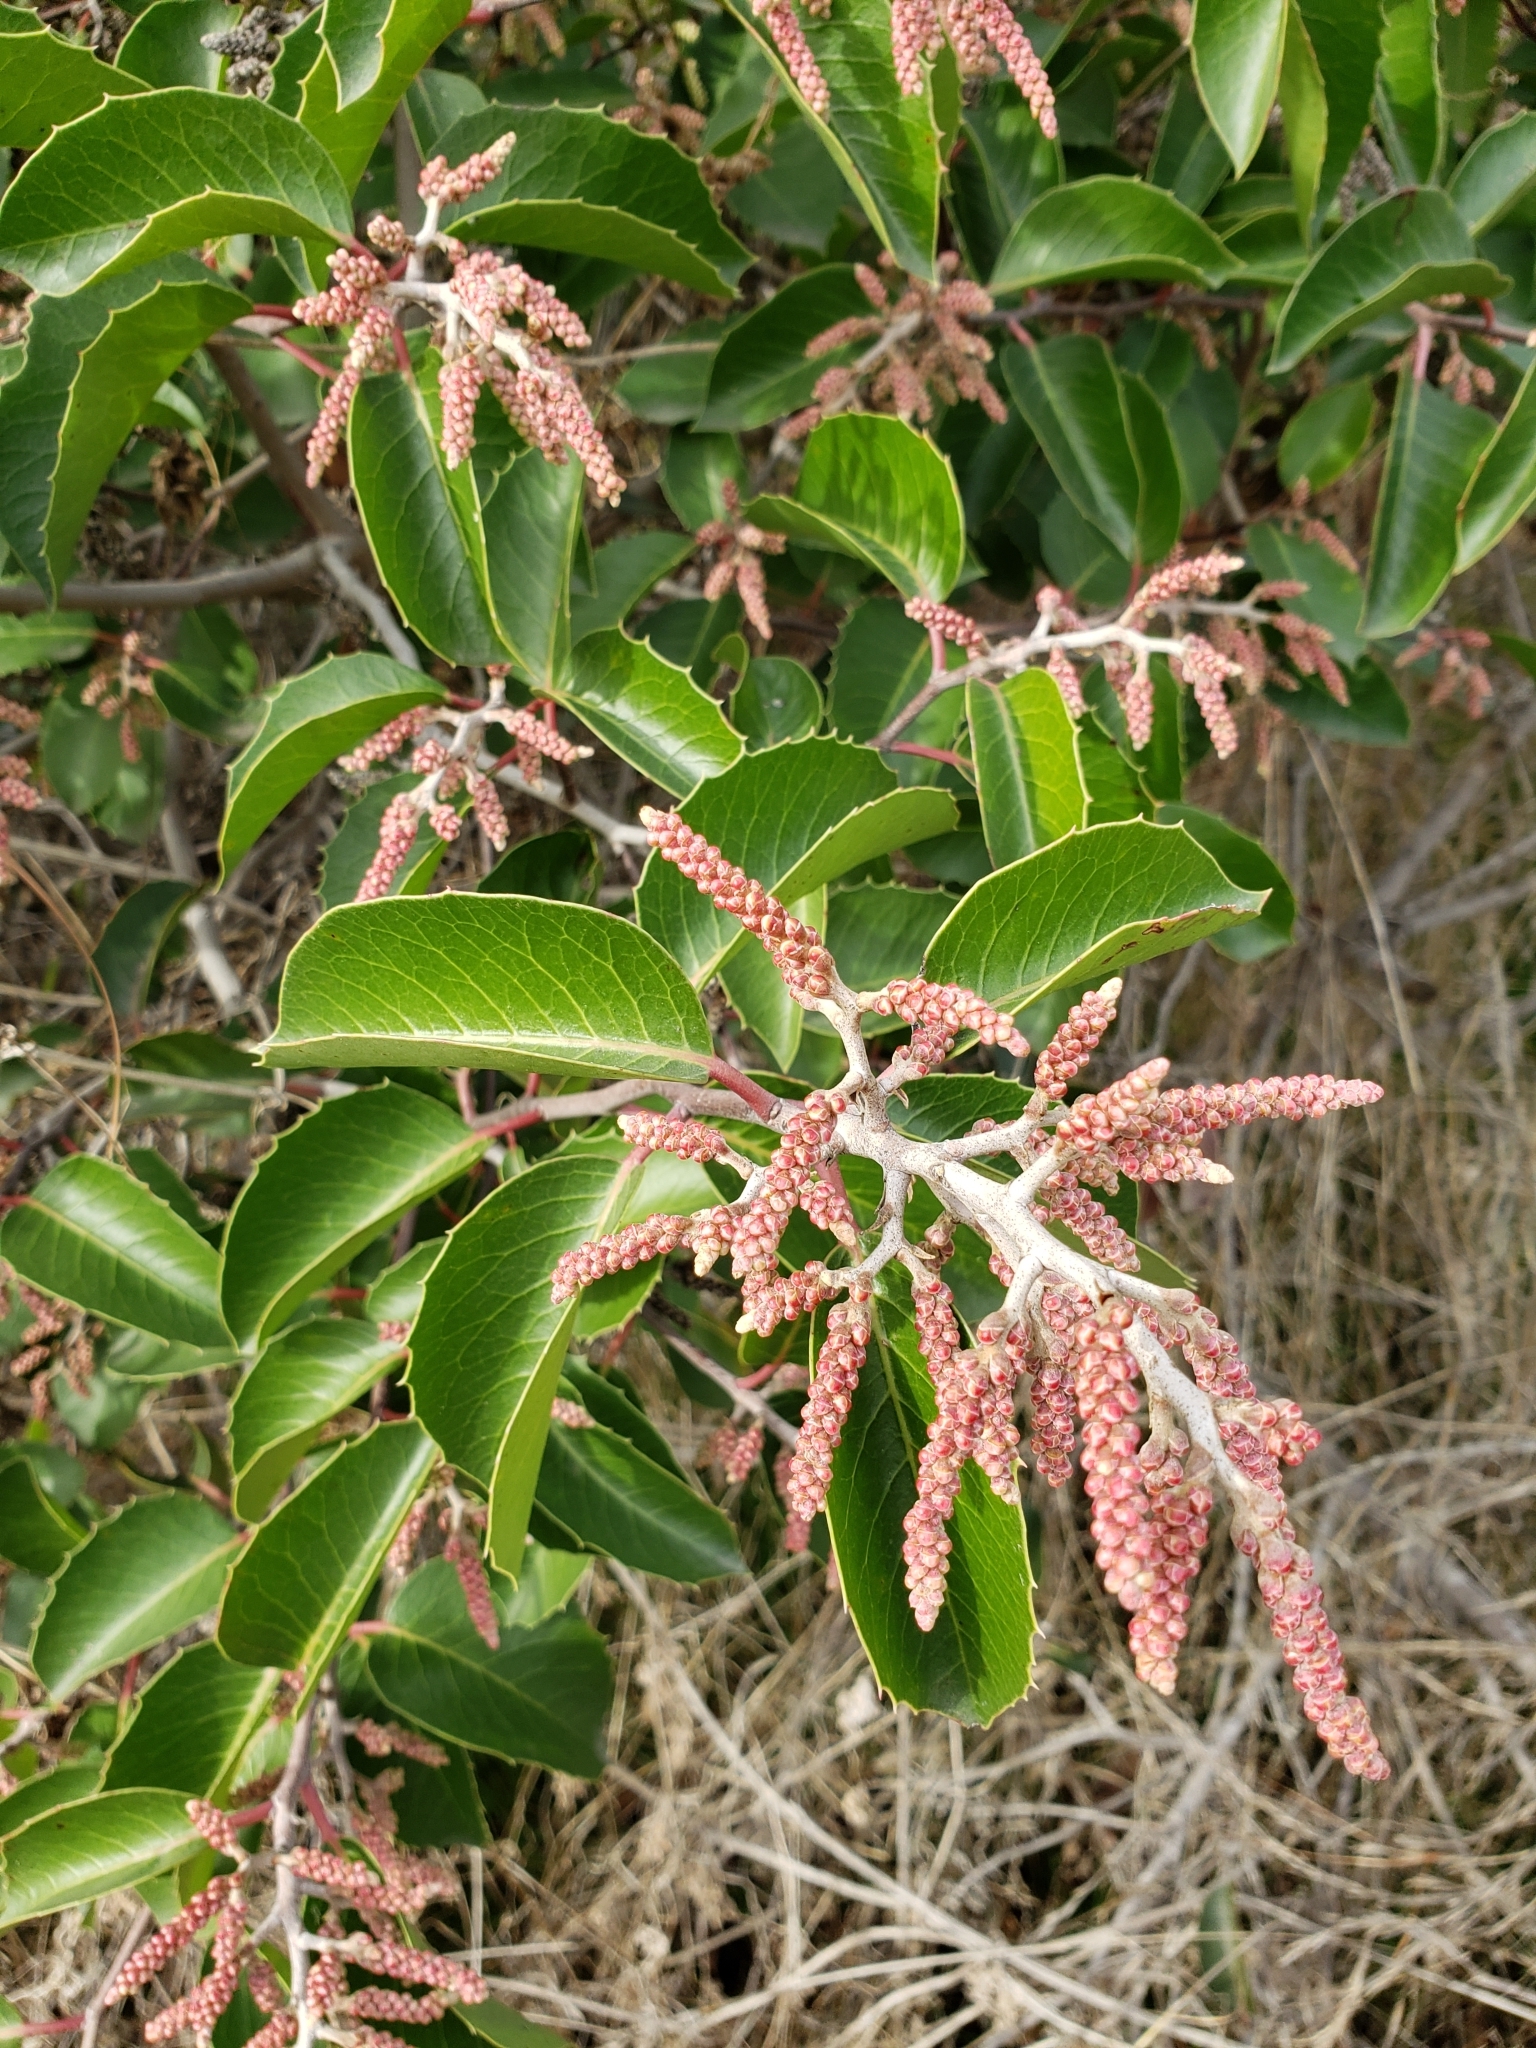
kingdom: Plantae
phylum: Tracheophyta
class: Magnoliopsida
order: Sapindales
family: Anacardiaceae
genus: Rhus
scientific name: Rhus ovata
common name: Sugar sumac
